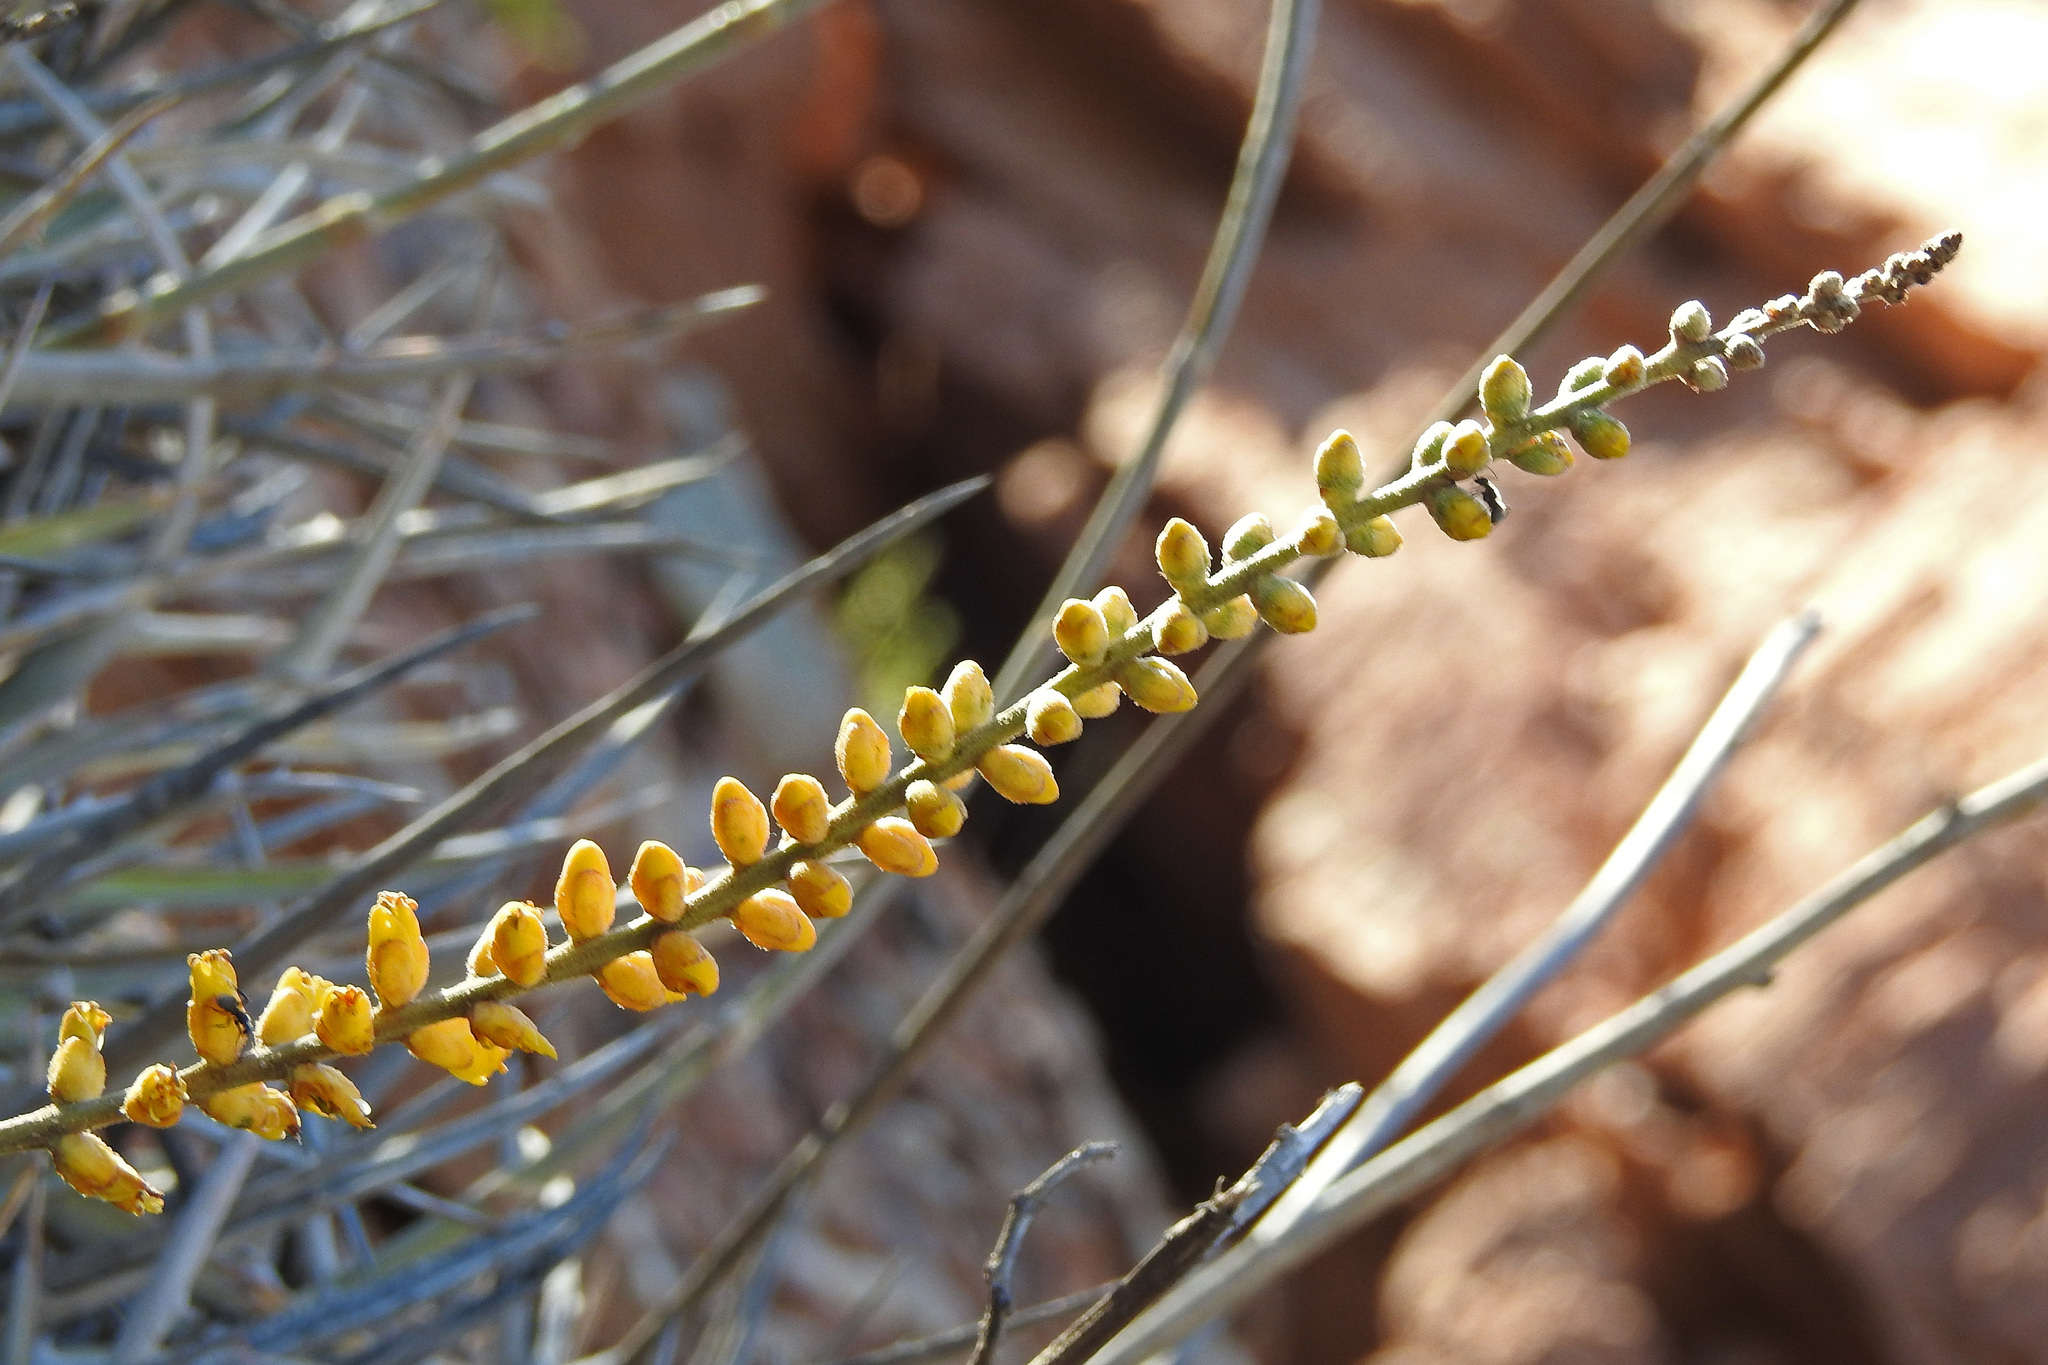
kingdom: Plantae
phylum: Tracheophyta
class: Liliopsida
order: Poales
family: Bromeliaceae
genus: Dyckia
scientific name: Dyckia floribunda
